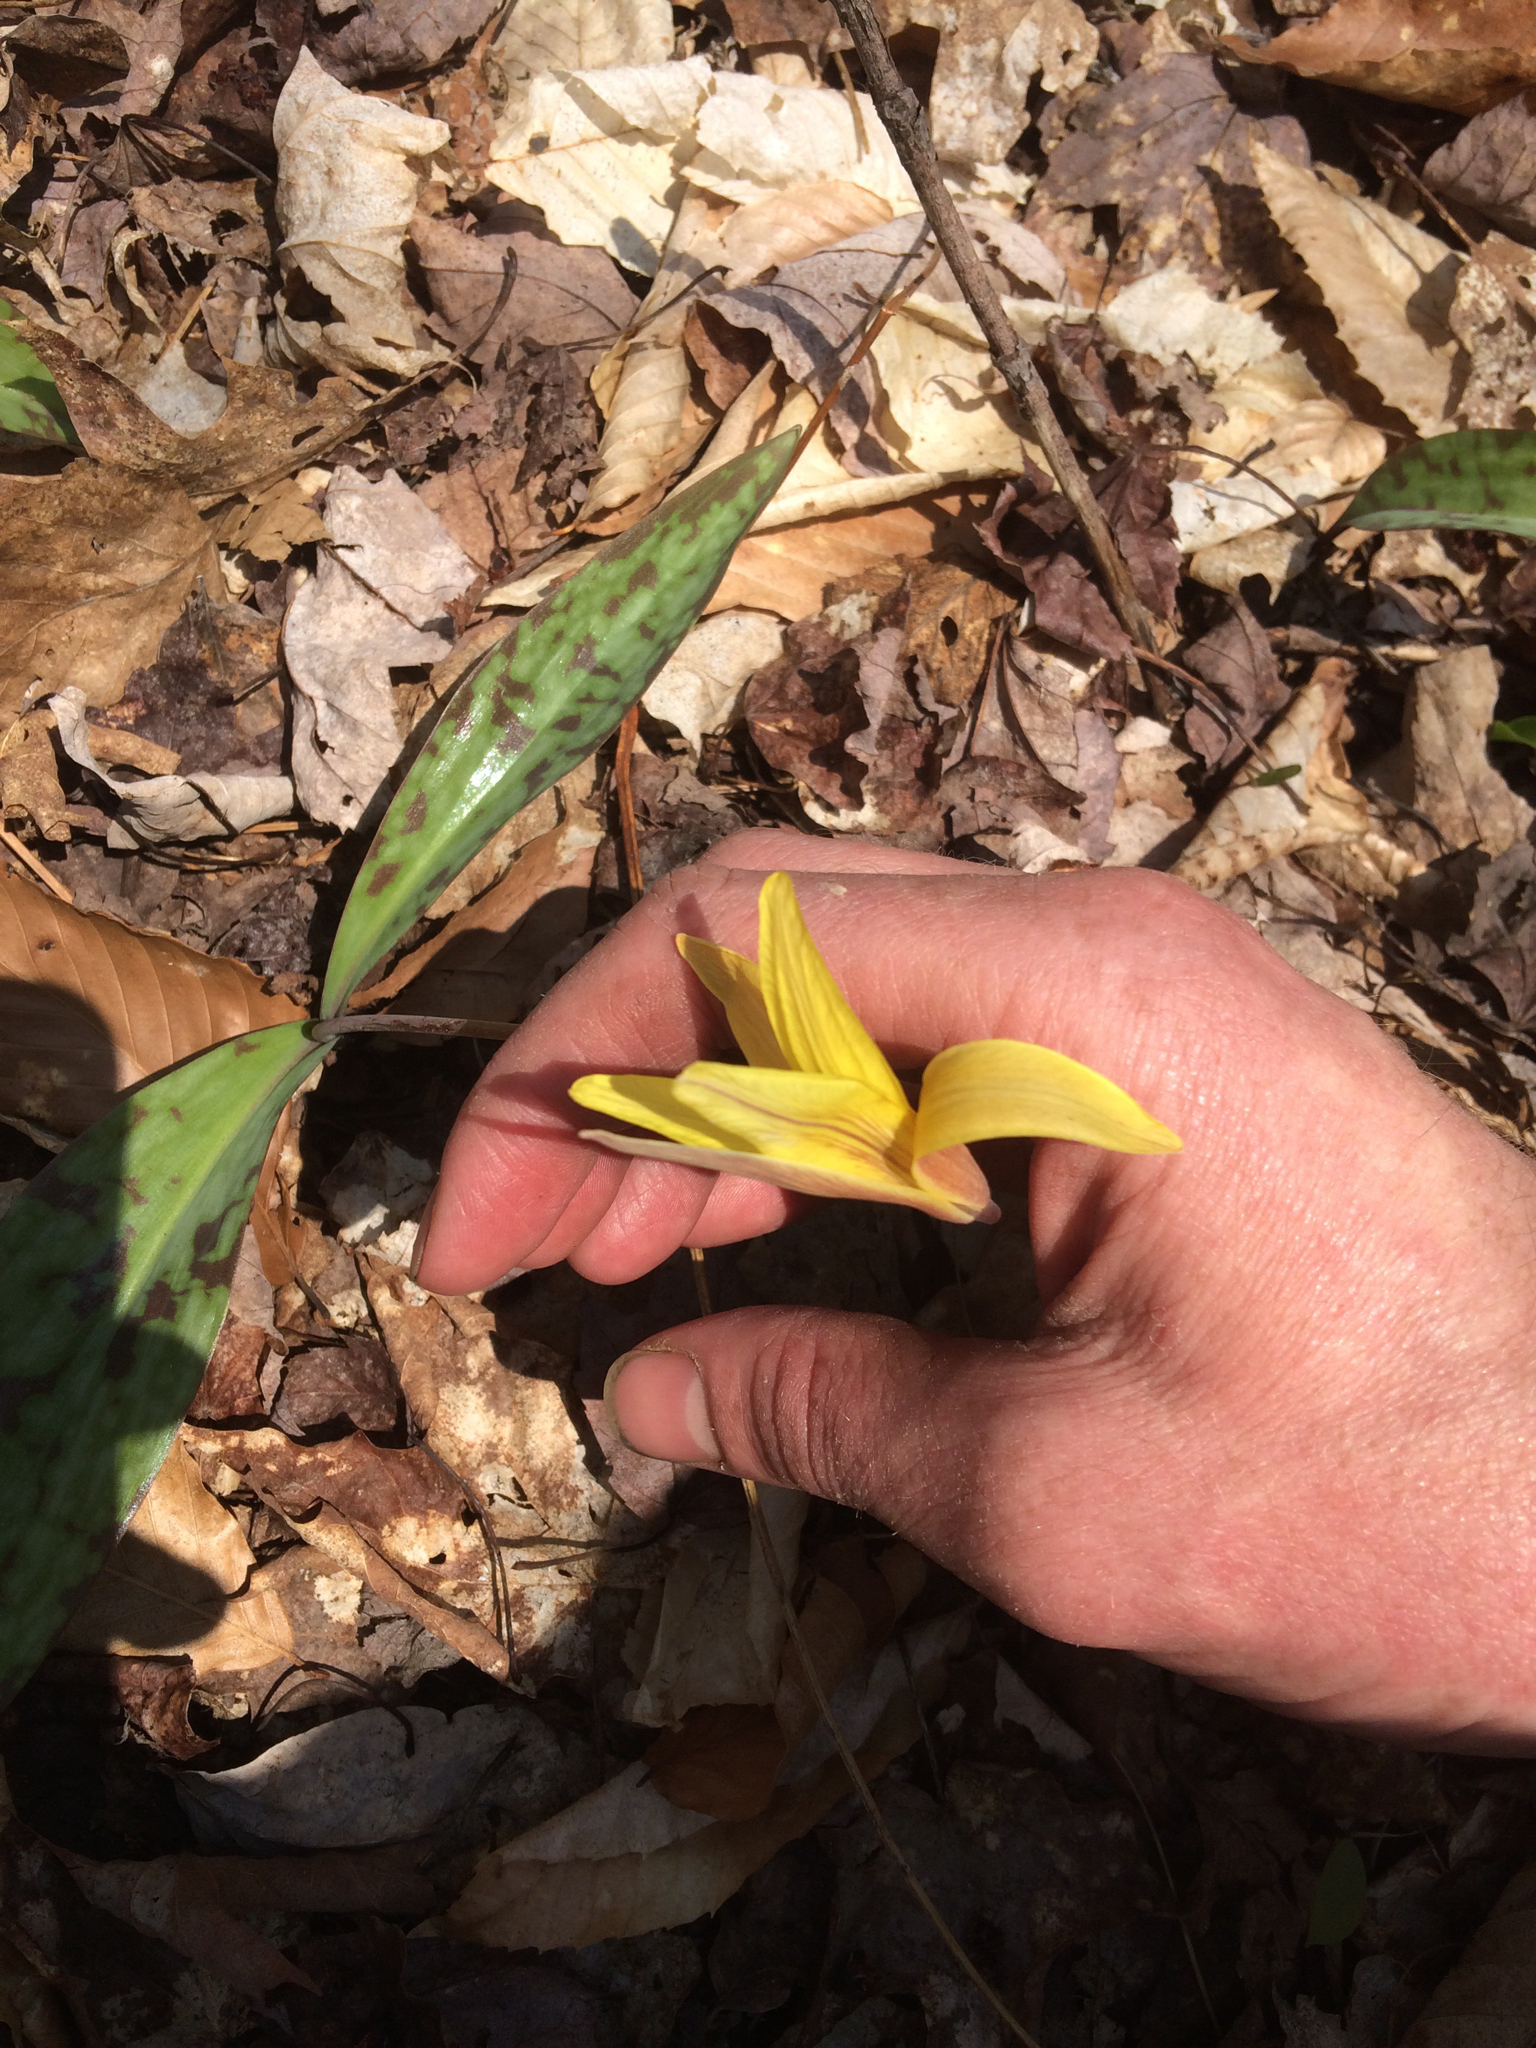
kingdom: Plantae
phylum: Tracheophyta
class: Liliopsida
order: Liliales
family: Liliaceae
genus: Erythronium
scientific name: Erythronium americanum
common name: Yellow adder's-tongue
